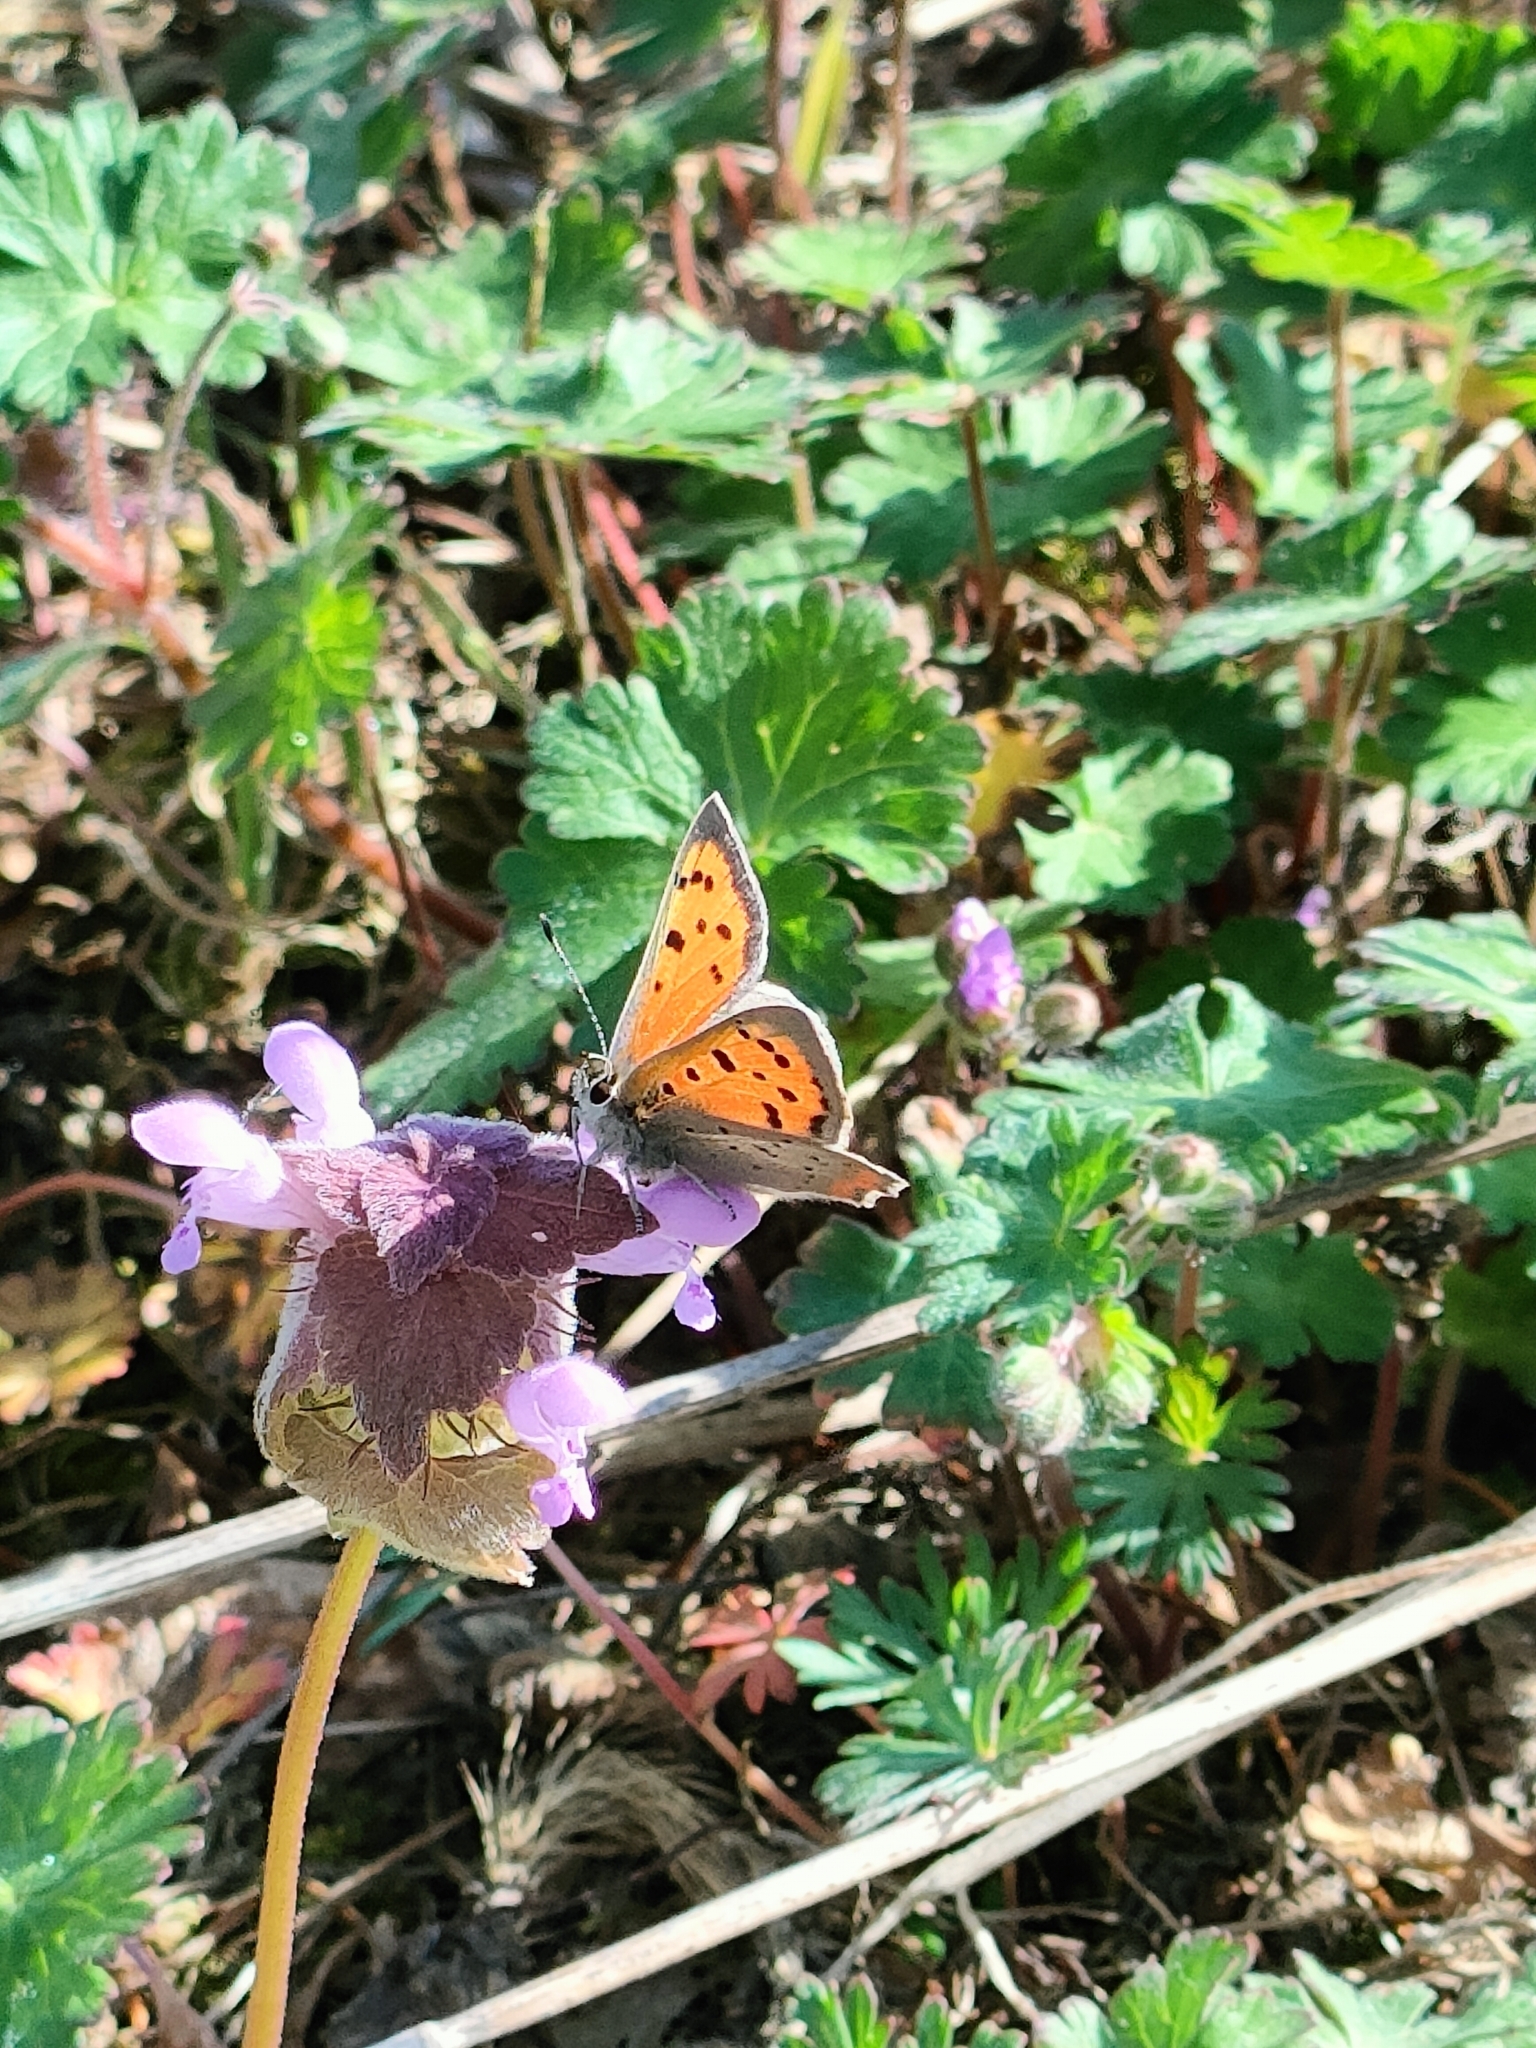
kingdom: Animalia
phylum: Arthropoda
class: Insecta
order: Lepidoptera
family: Lycaenidae
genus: Lycaena
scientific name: Lycaena phlaeas
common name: Small copper
